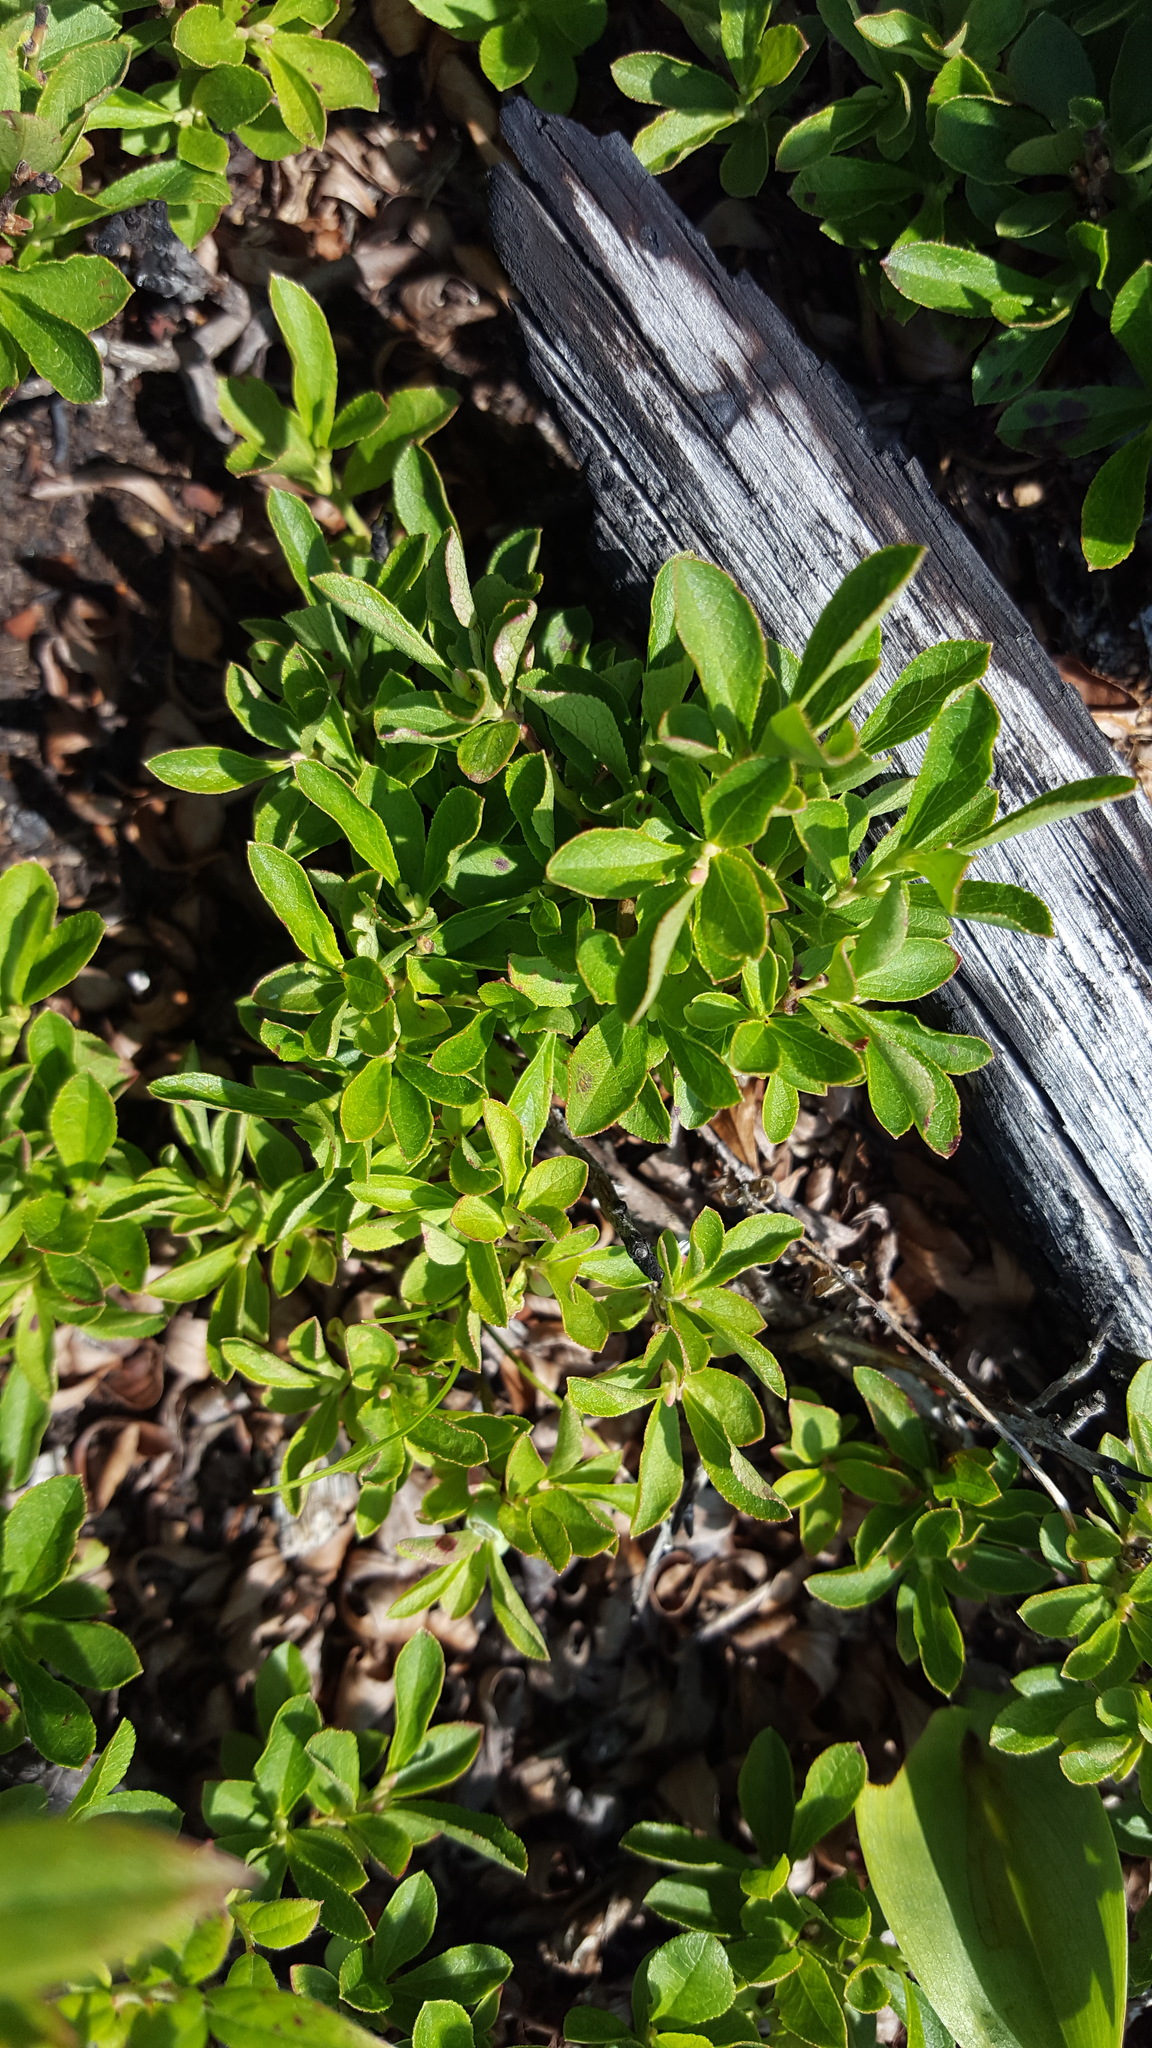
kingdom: Plantae
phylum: Tracheophyta
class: Magnoliopsida
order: Ericales
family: Ericaceae
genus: Vaccinium
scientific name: Vaccinium cespitosum
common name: Dwarf bilberry
